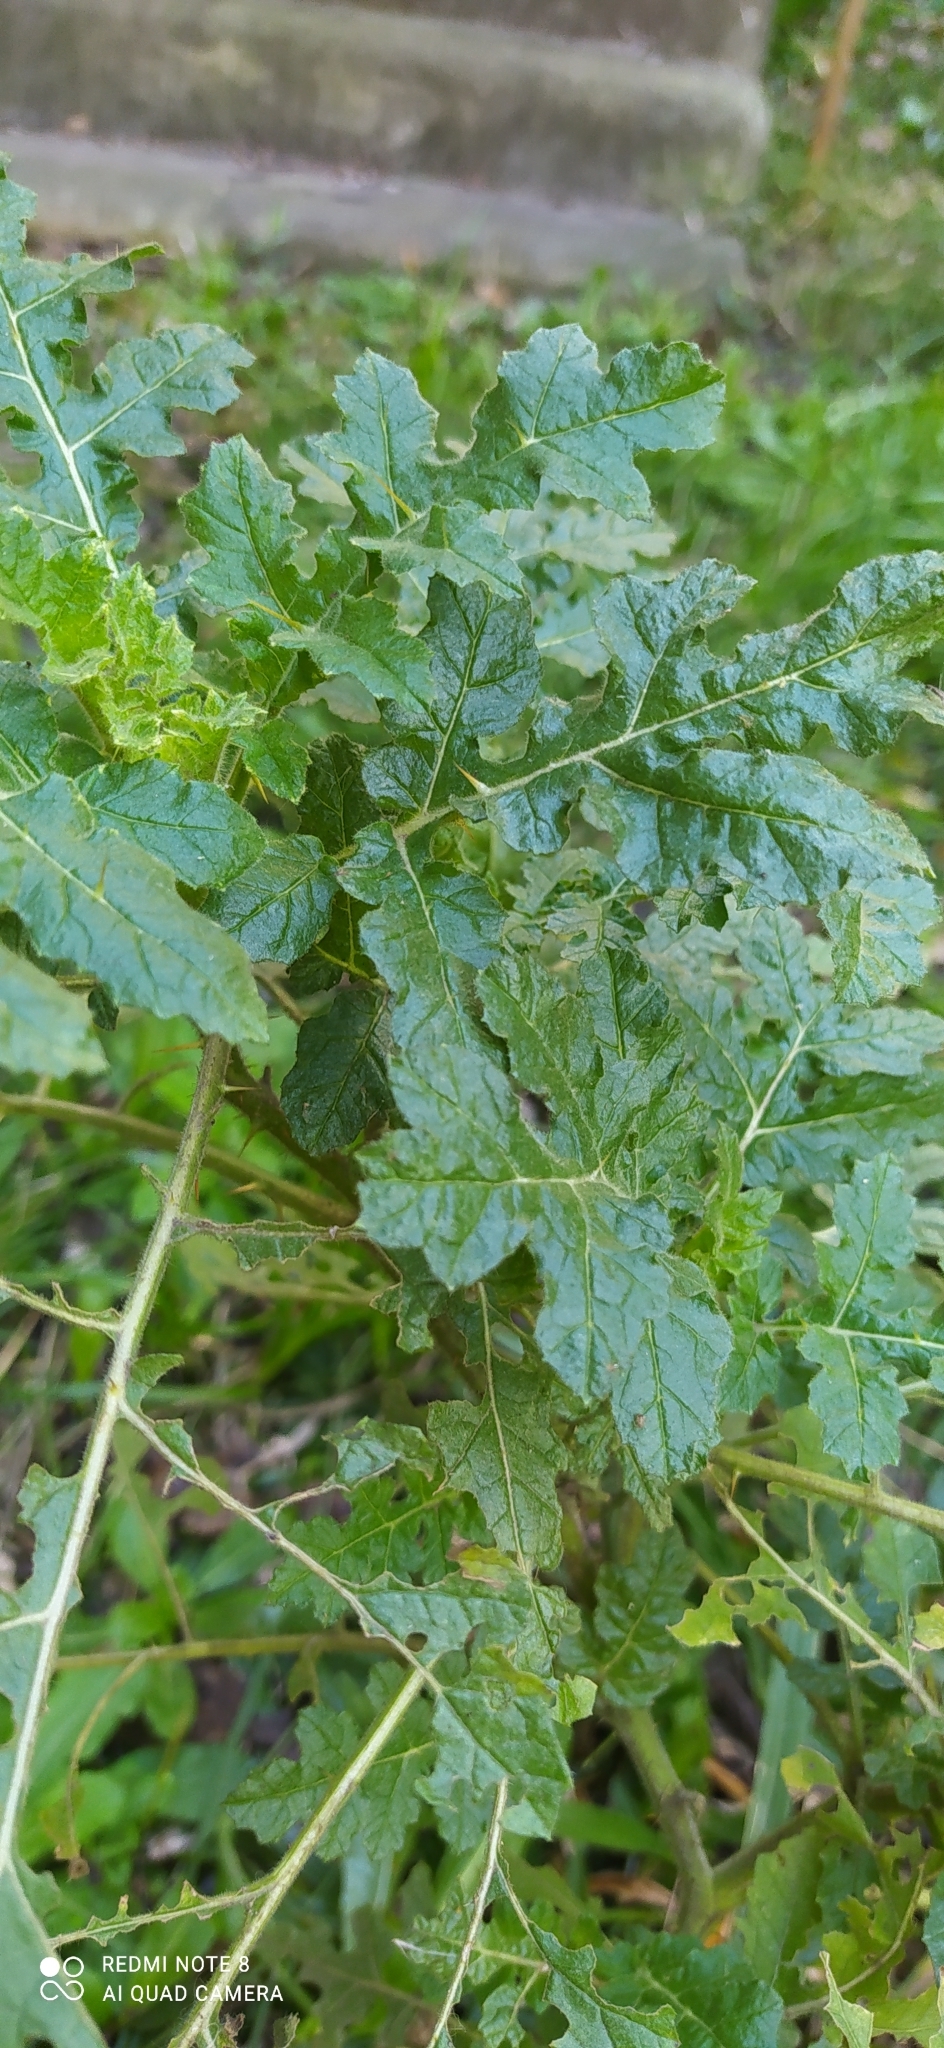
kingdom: Plantae
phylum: Tracheophyta
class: Magnoliopsida
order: Solanales
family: Solanaceae
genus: Solanum
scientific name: Solanum sisymbriifolium
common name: Red buffalo-bur
